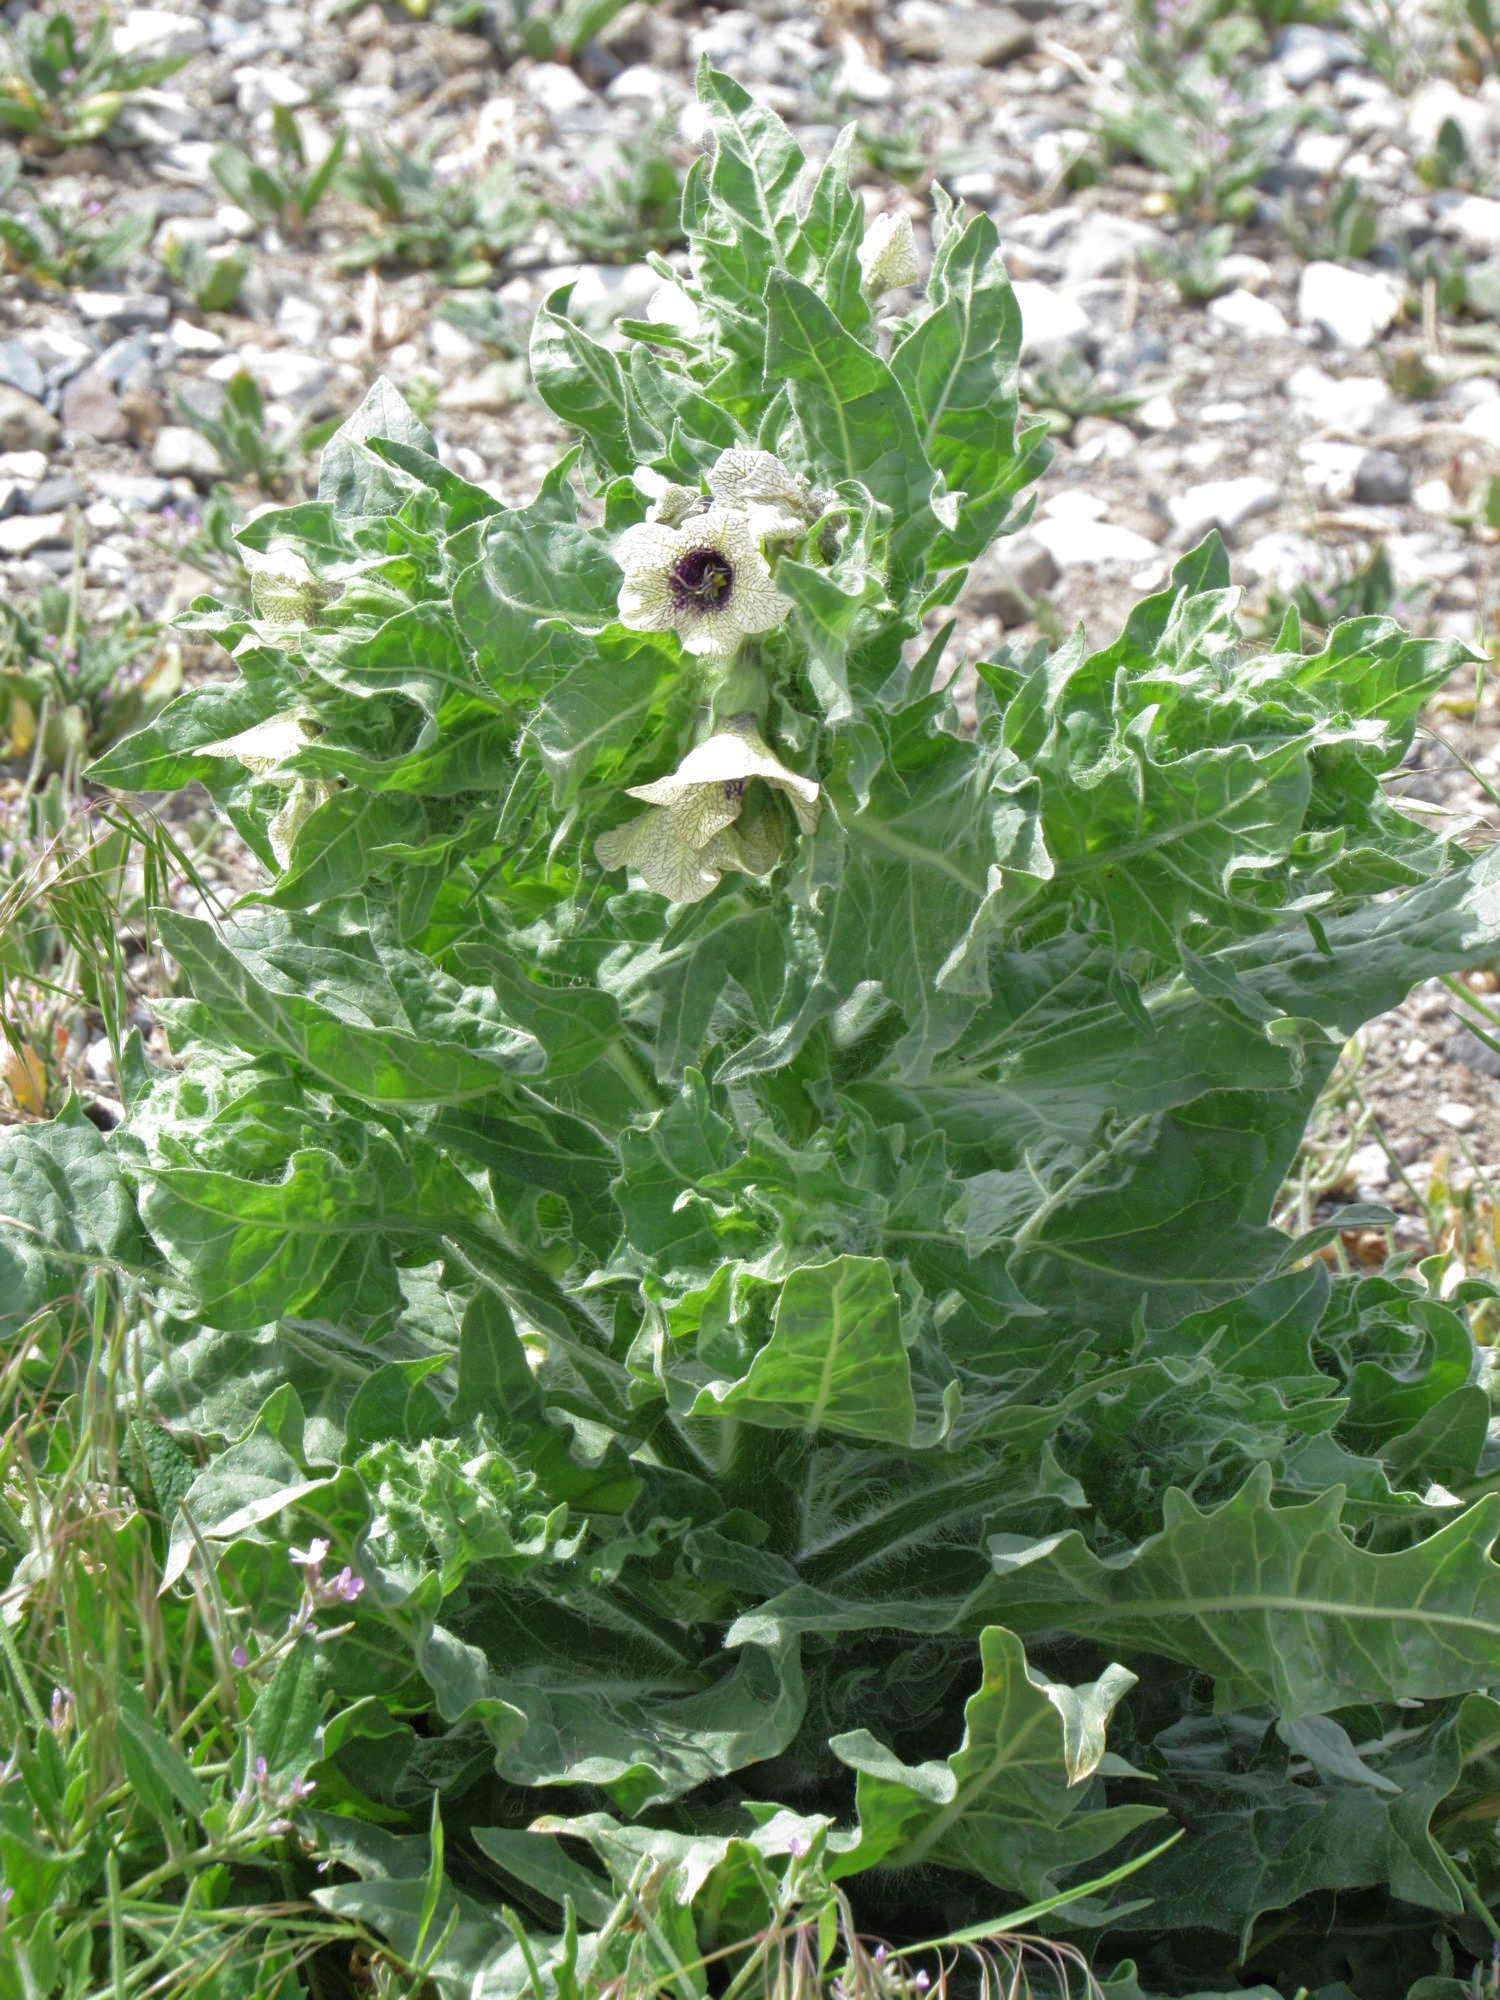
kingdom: Plantae
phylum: Tracheophyta
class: Magnoliopsida
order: Solanales
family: Solanaceae
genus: Hyoscyamus
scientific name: Hyoscyamus niger
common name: Henbane
